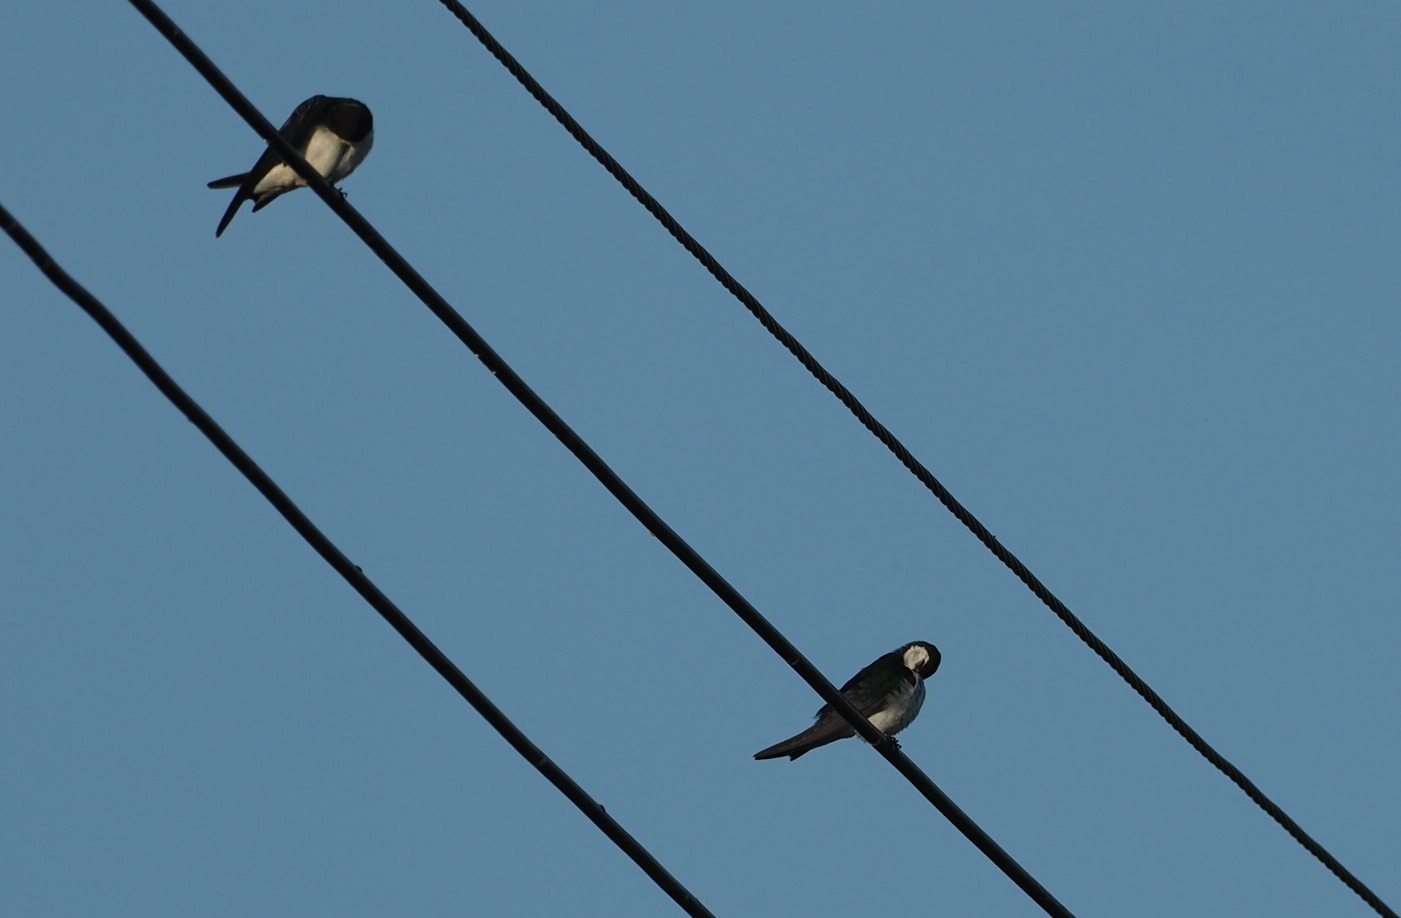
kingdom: Animalia
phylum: Chordata
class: Aves
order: Passeriformes
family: Hirundinidae
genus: Tachycineta
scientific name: Tachycineta thalassina
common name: Violet-green swallow
